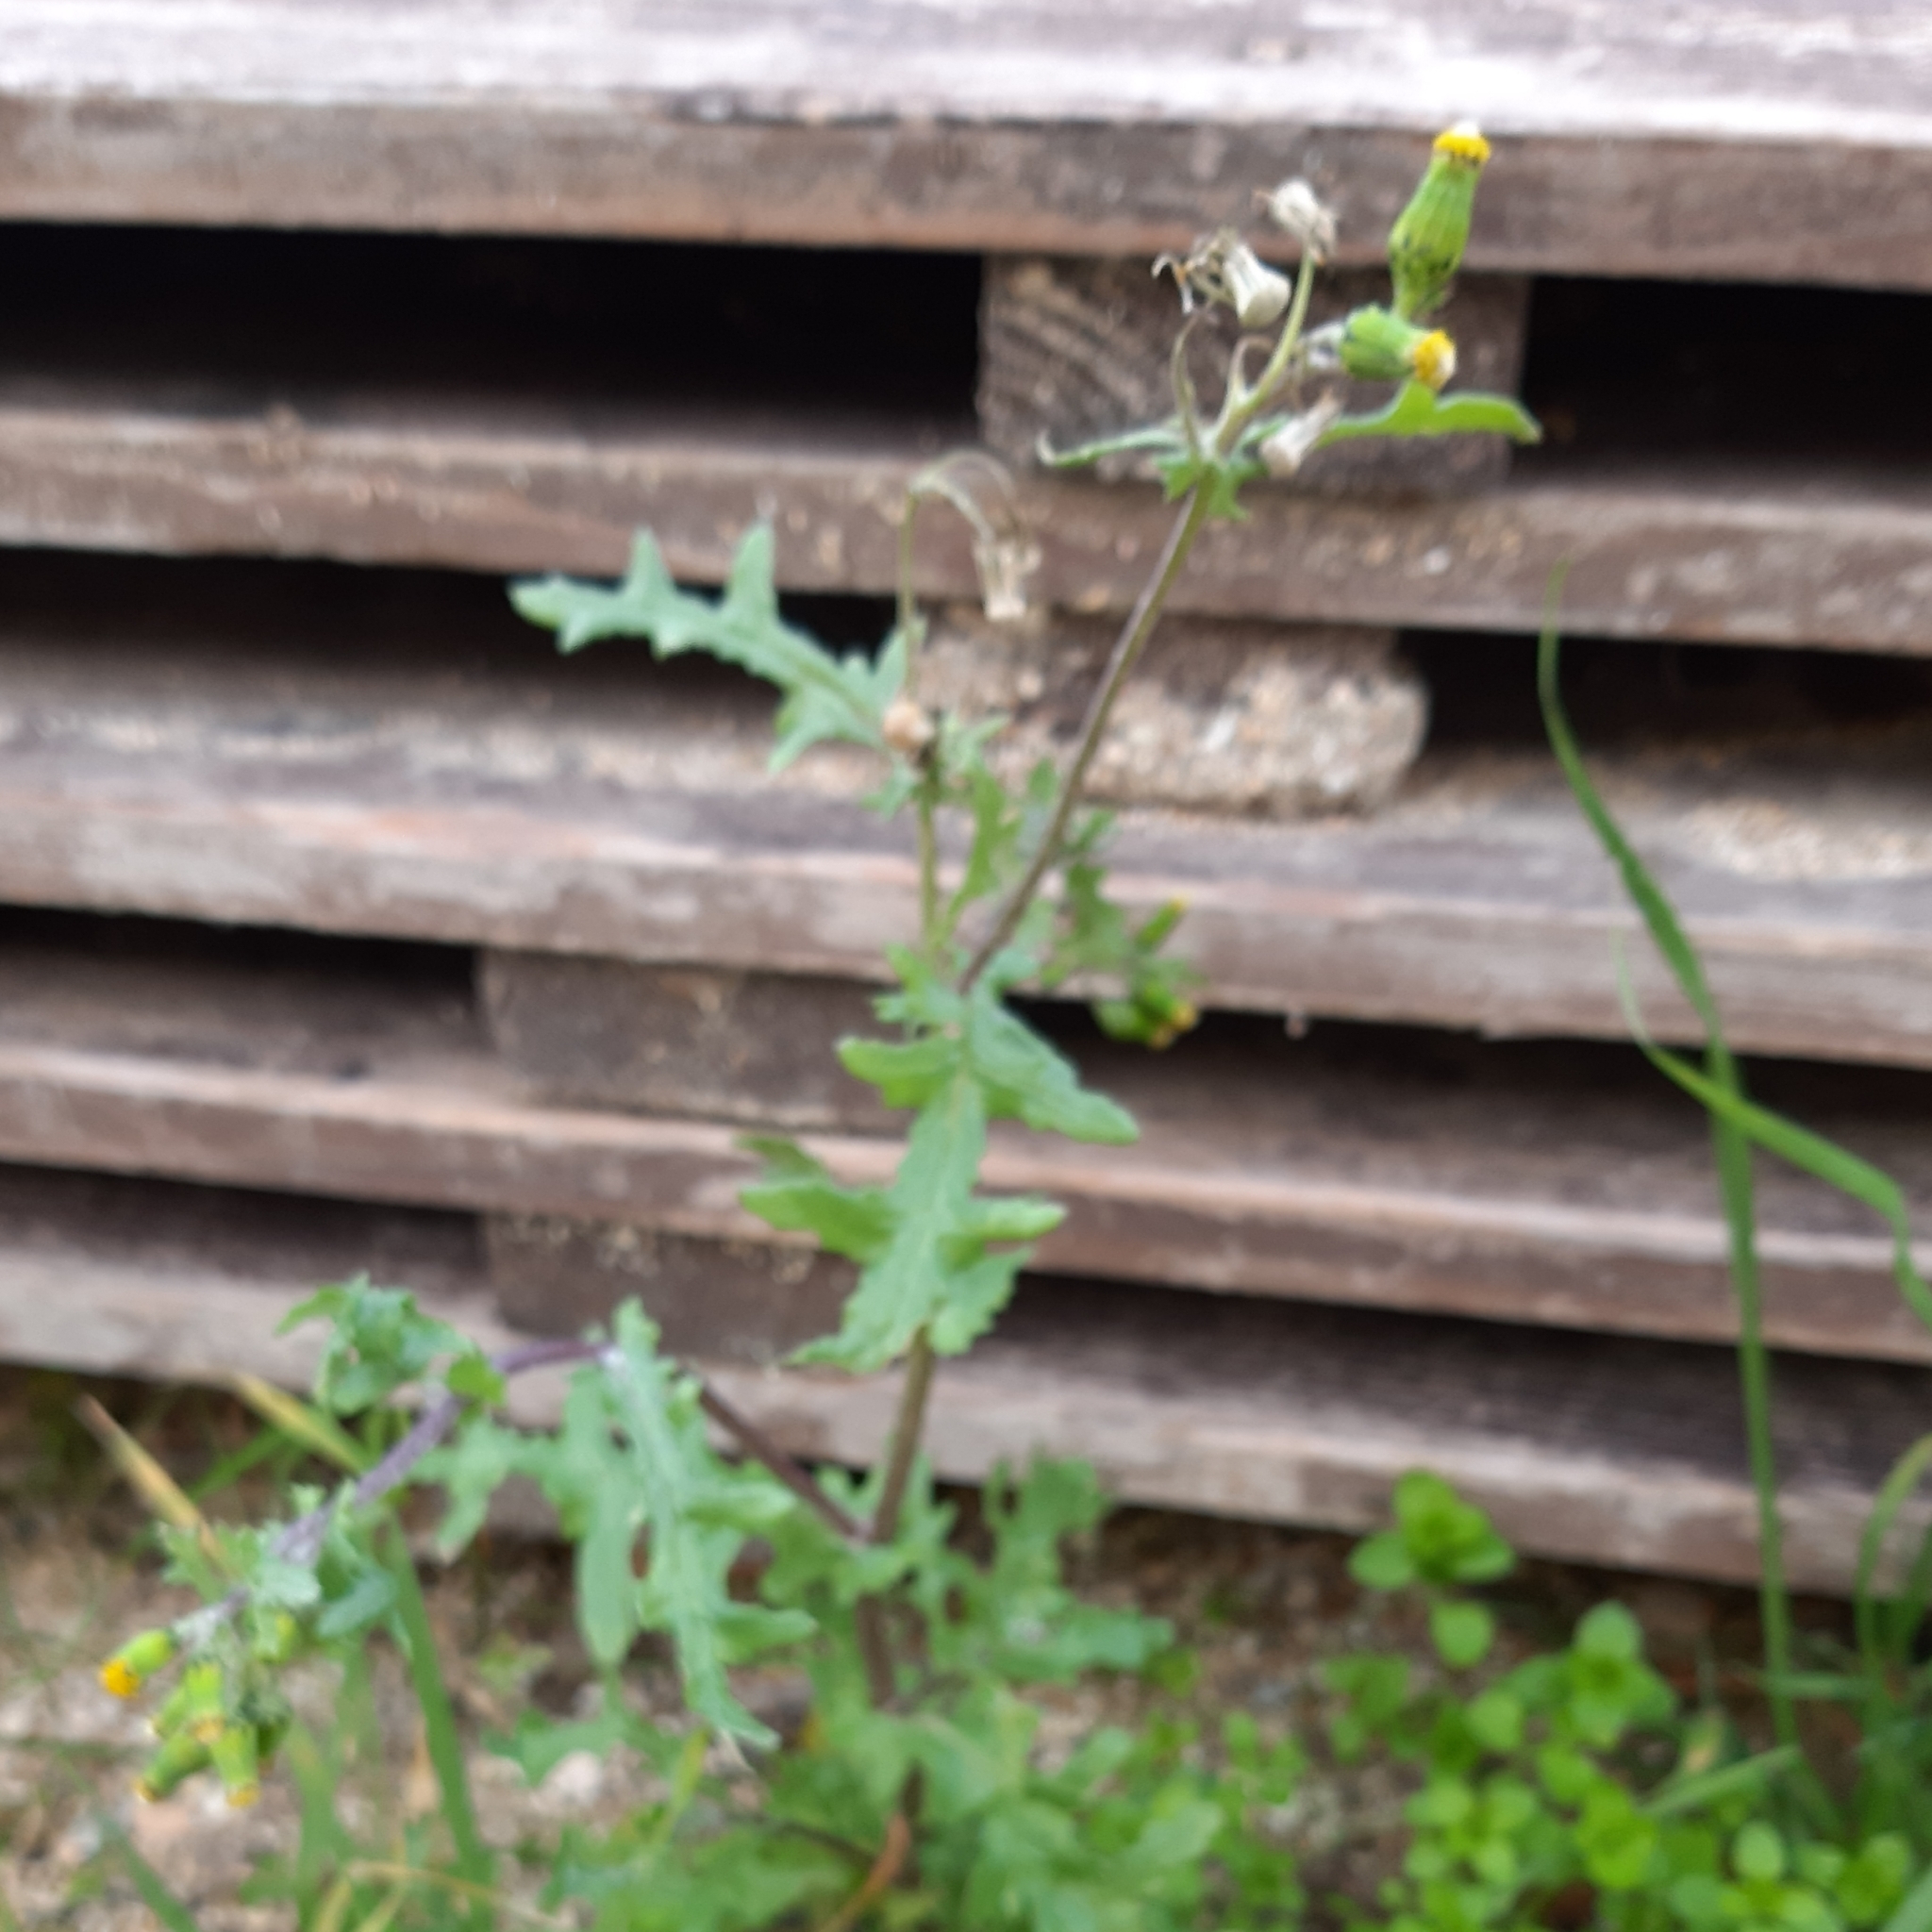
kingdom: Plantae
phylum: Tracheophyta
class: Magnoliopsida
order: Asterales
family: Asteraceae
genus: Senecio
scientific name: Senecio vulgaris
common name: Old-man-in-the-spring
